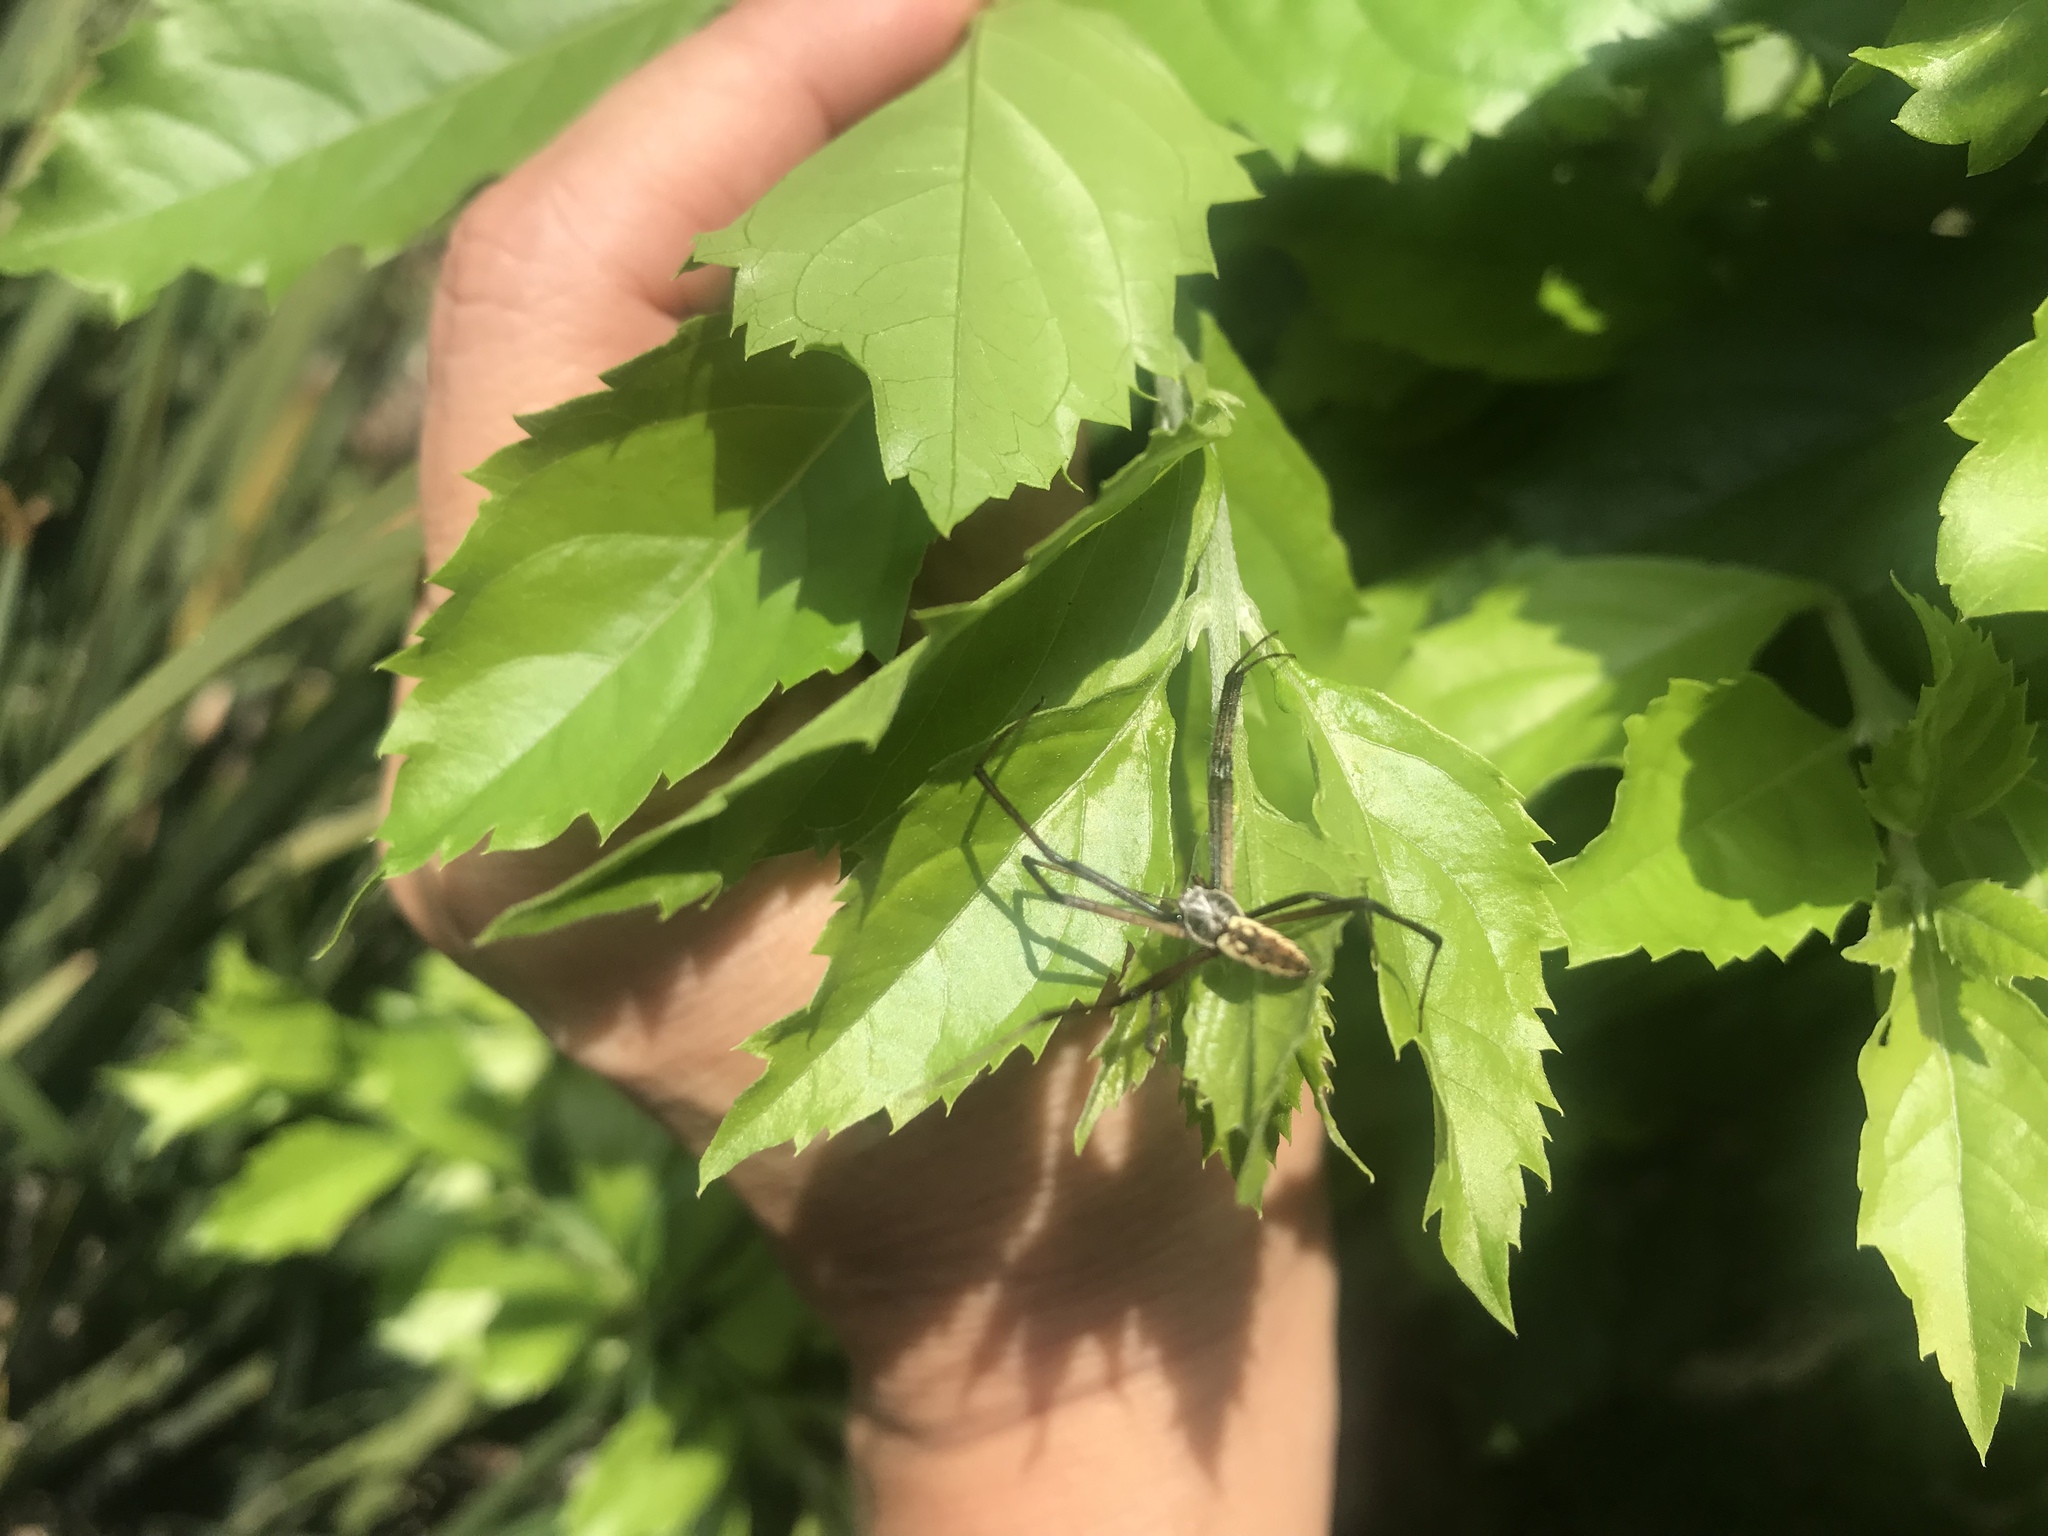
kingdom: Animalia
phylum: Arthropoda
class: Arachnida
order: Araneae
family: Araneidae
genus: Argiope
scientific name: Argiope aurantia
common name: Orb weavers
